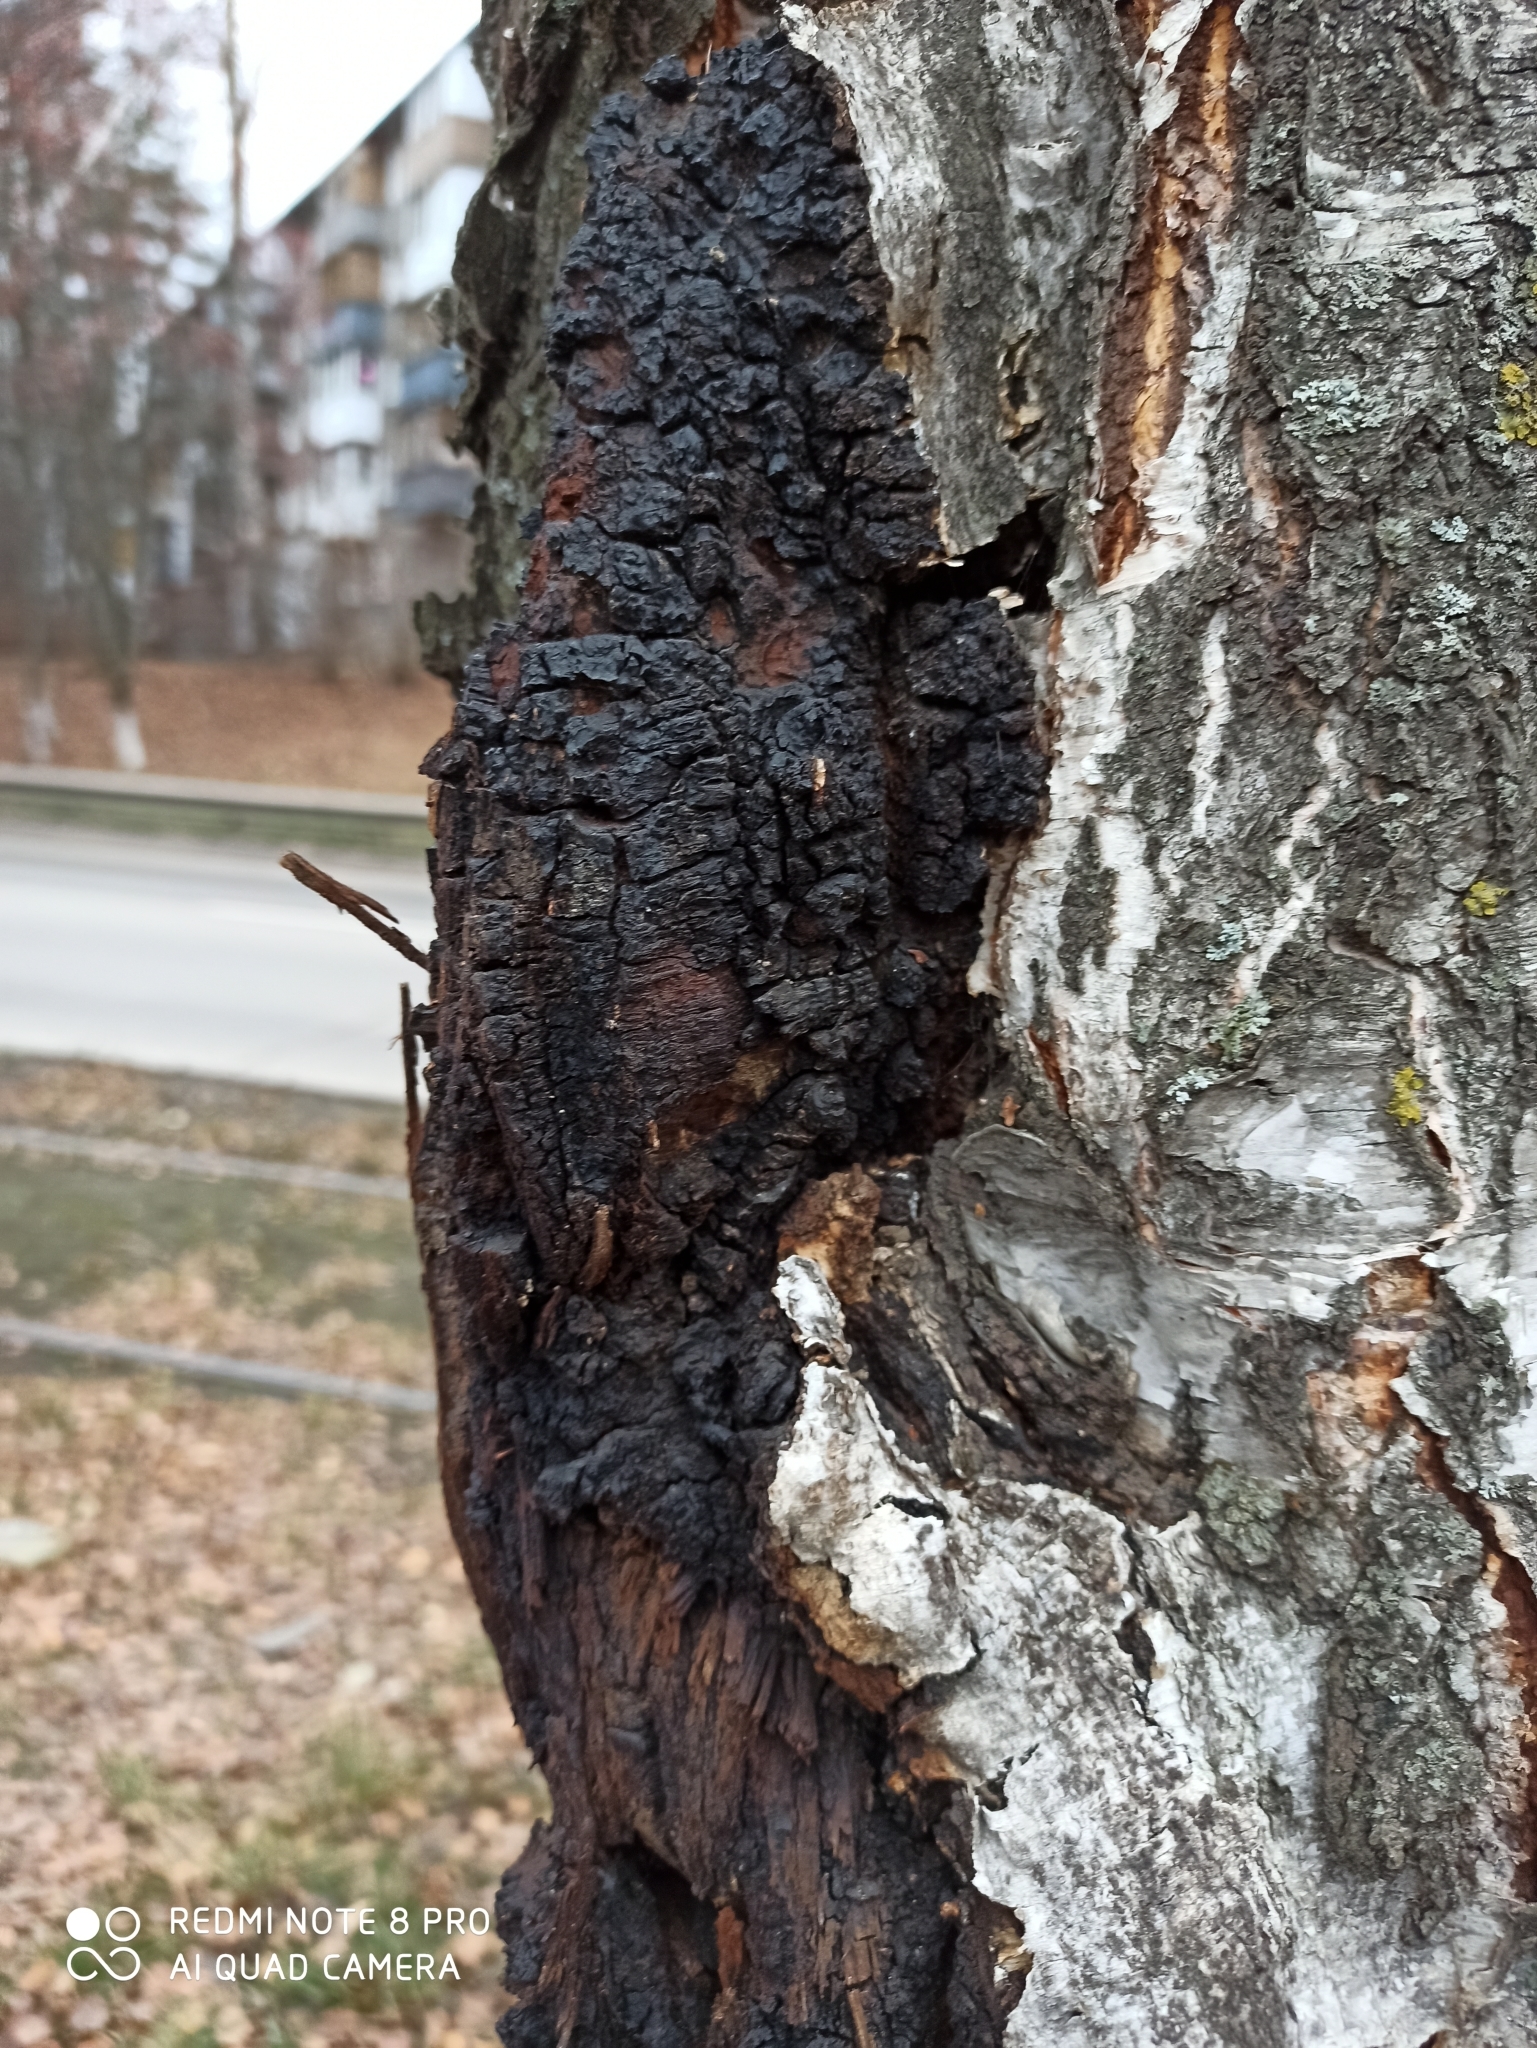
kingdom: Fungi
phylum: Basidiomycota
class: Agaricomycetes
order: Hymenochaetales
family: Hymenochaetaceae
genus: Inonotus
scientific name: Inonotus obliquus
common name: Chaga
